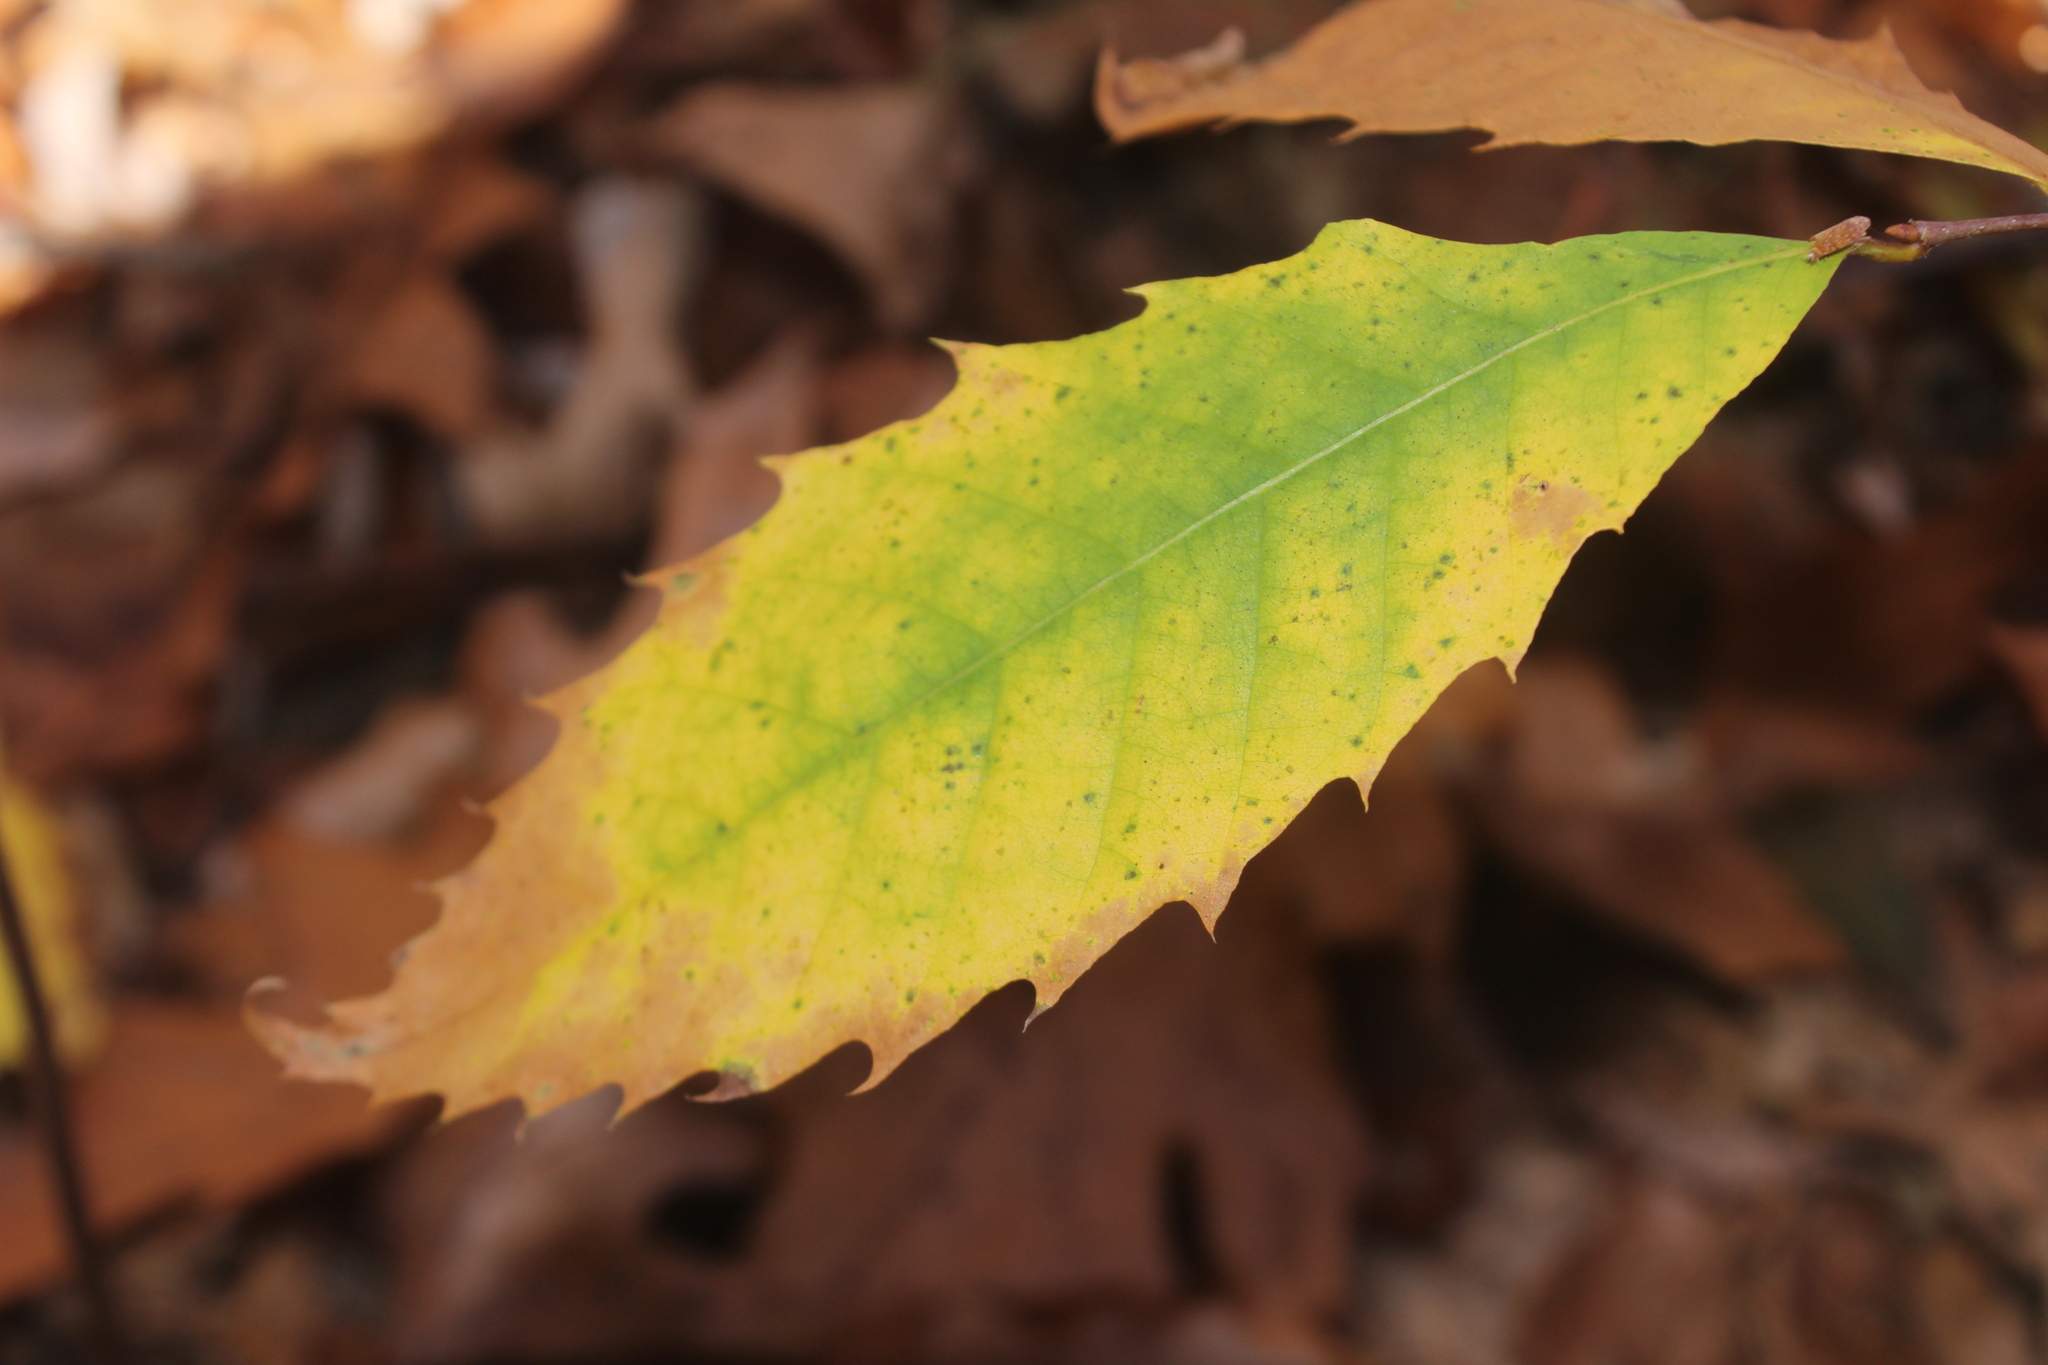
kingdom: Plantae
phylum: Tracheophyta
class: Magnoliopsida
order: Fagales
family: Fagaceae
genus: Castanea
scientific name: Castanea dentata
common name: American chestnut
